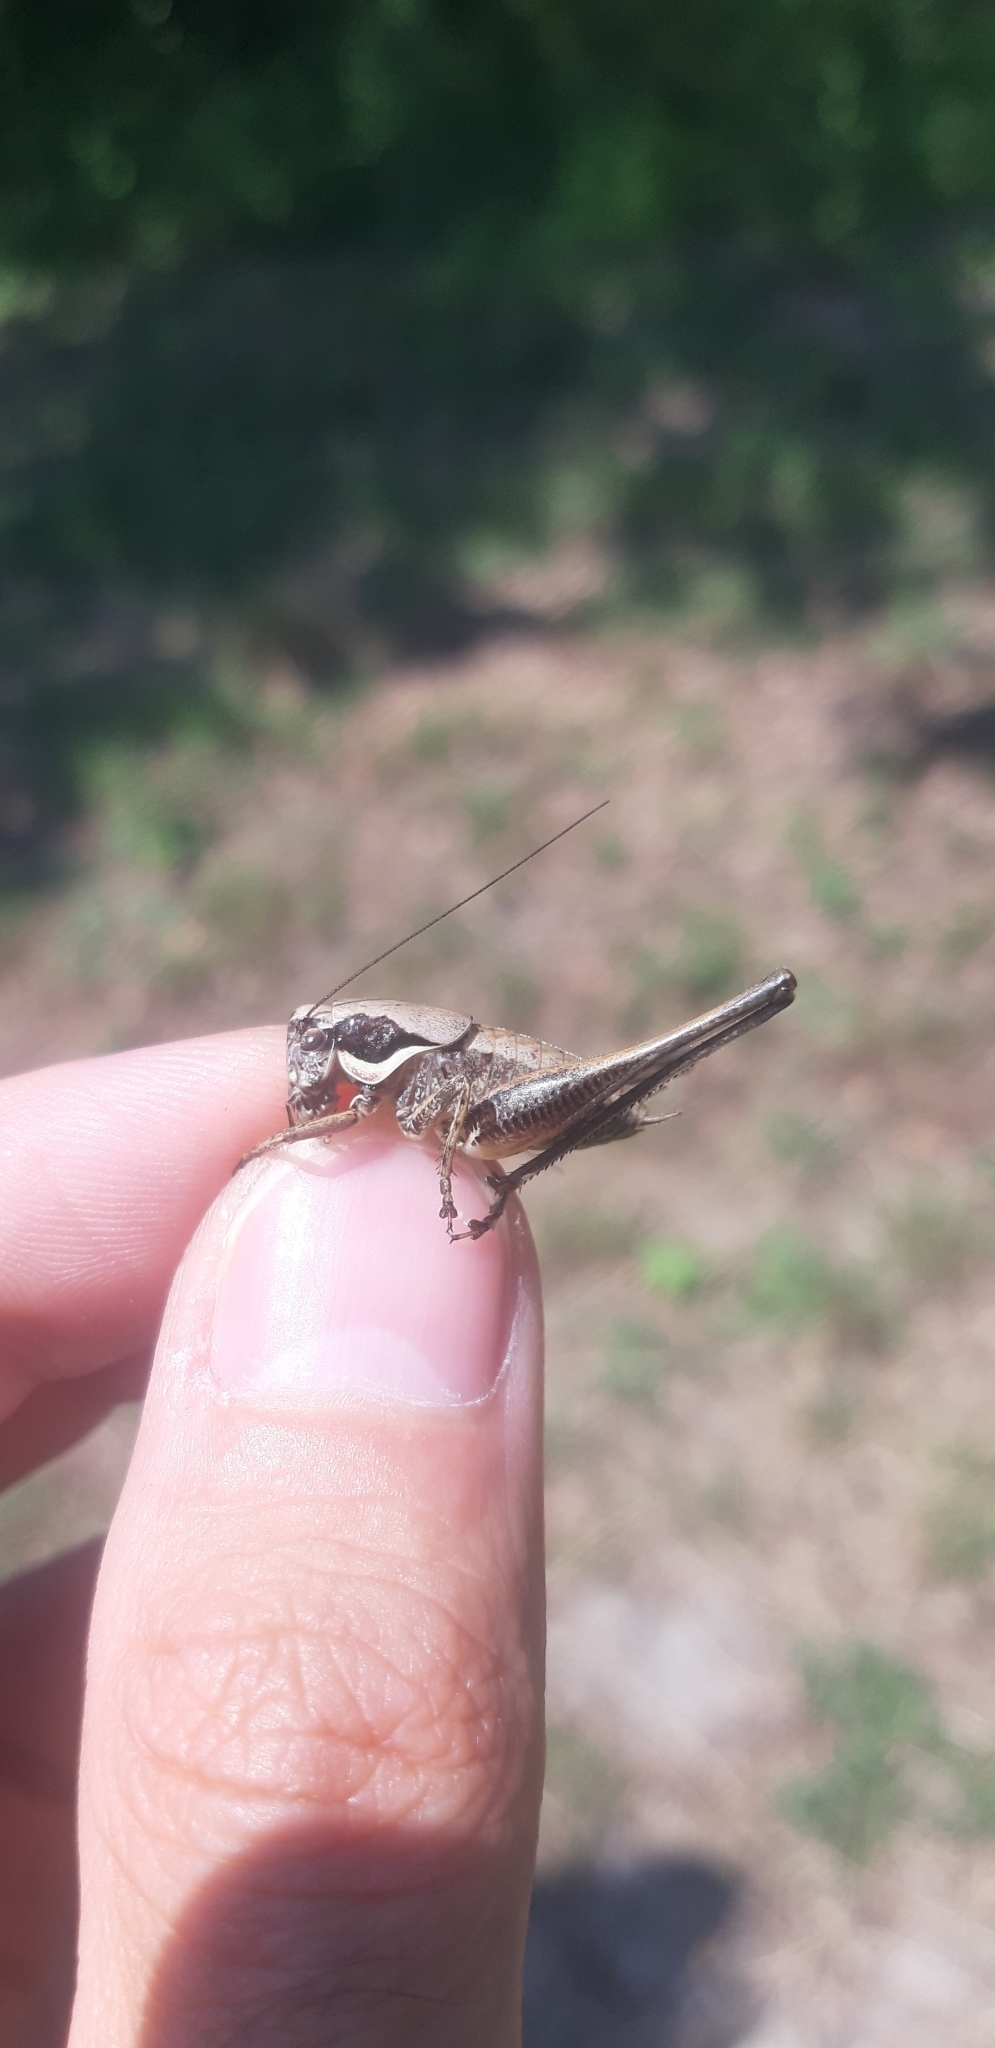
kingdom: Animalia
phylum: Arthropoda
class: Insecta
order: Orthoptera
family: Tettigoniidae
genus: Pholidoptera
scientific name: Pholidoptera fallax
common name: Fischer's bush-cricket
